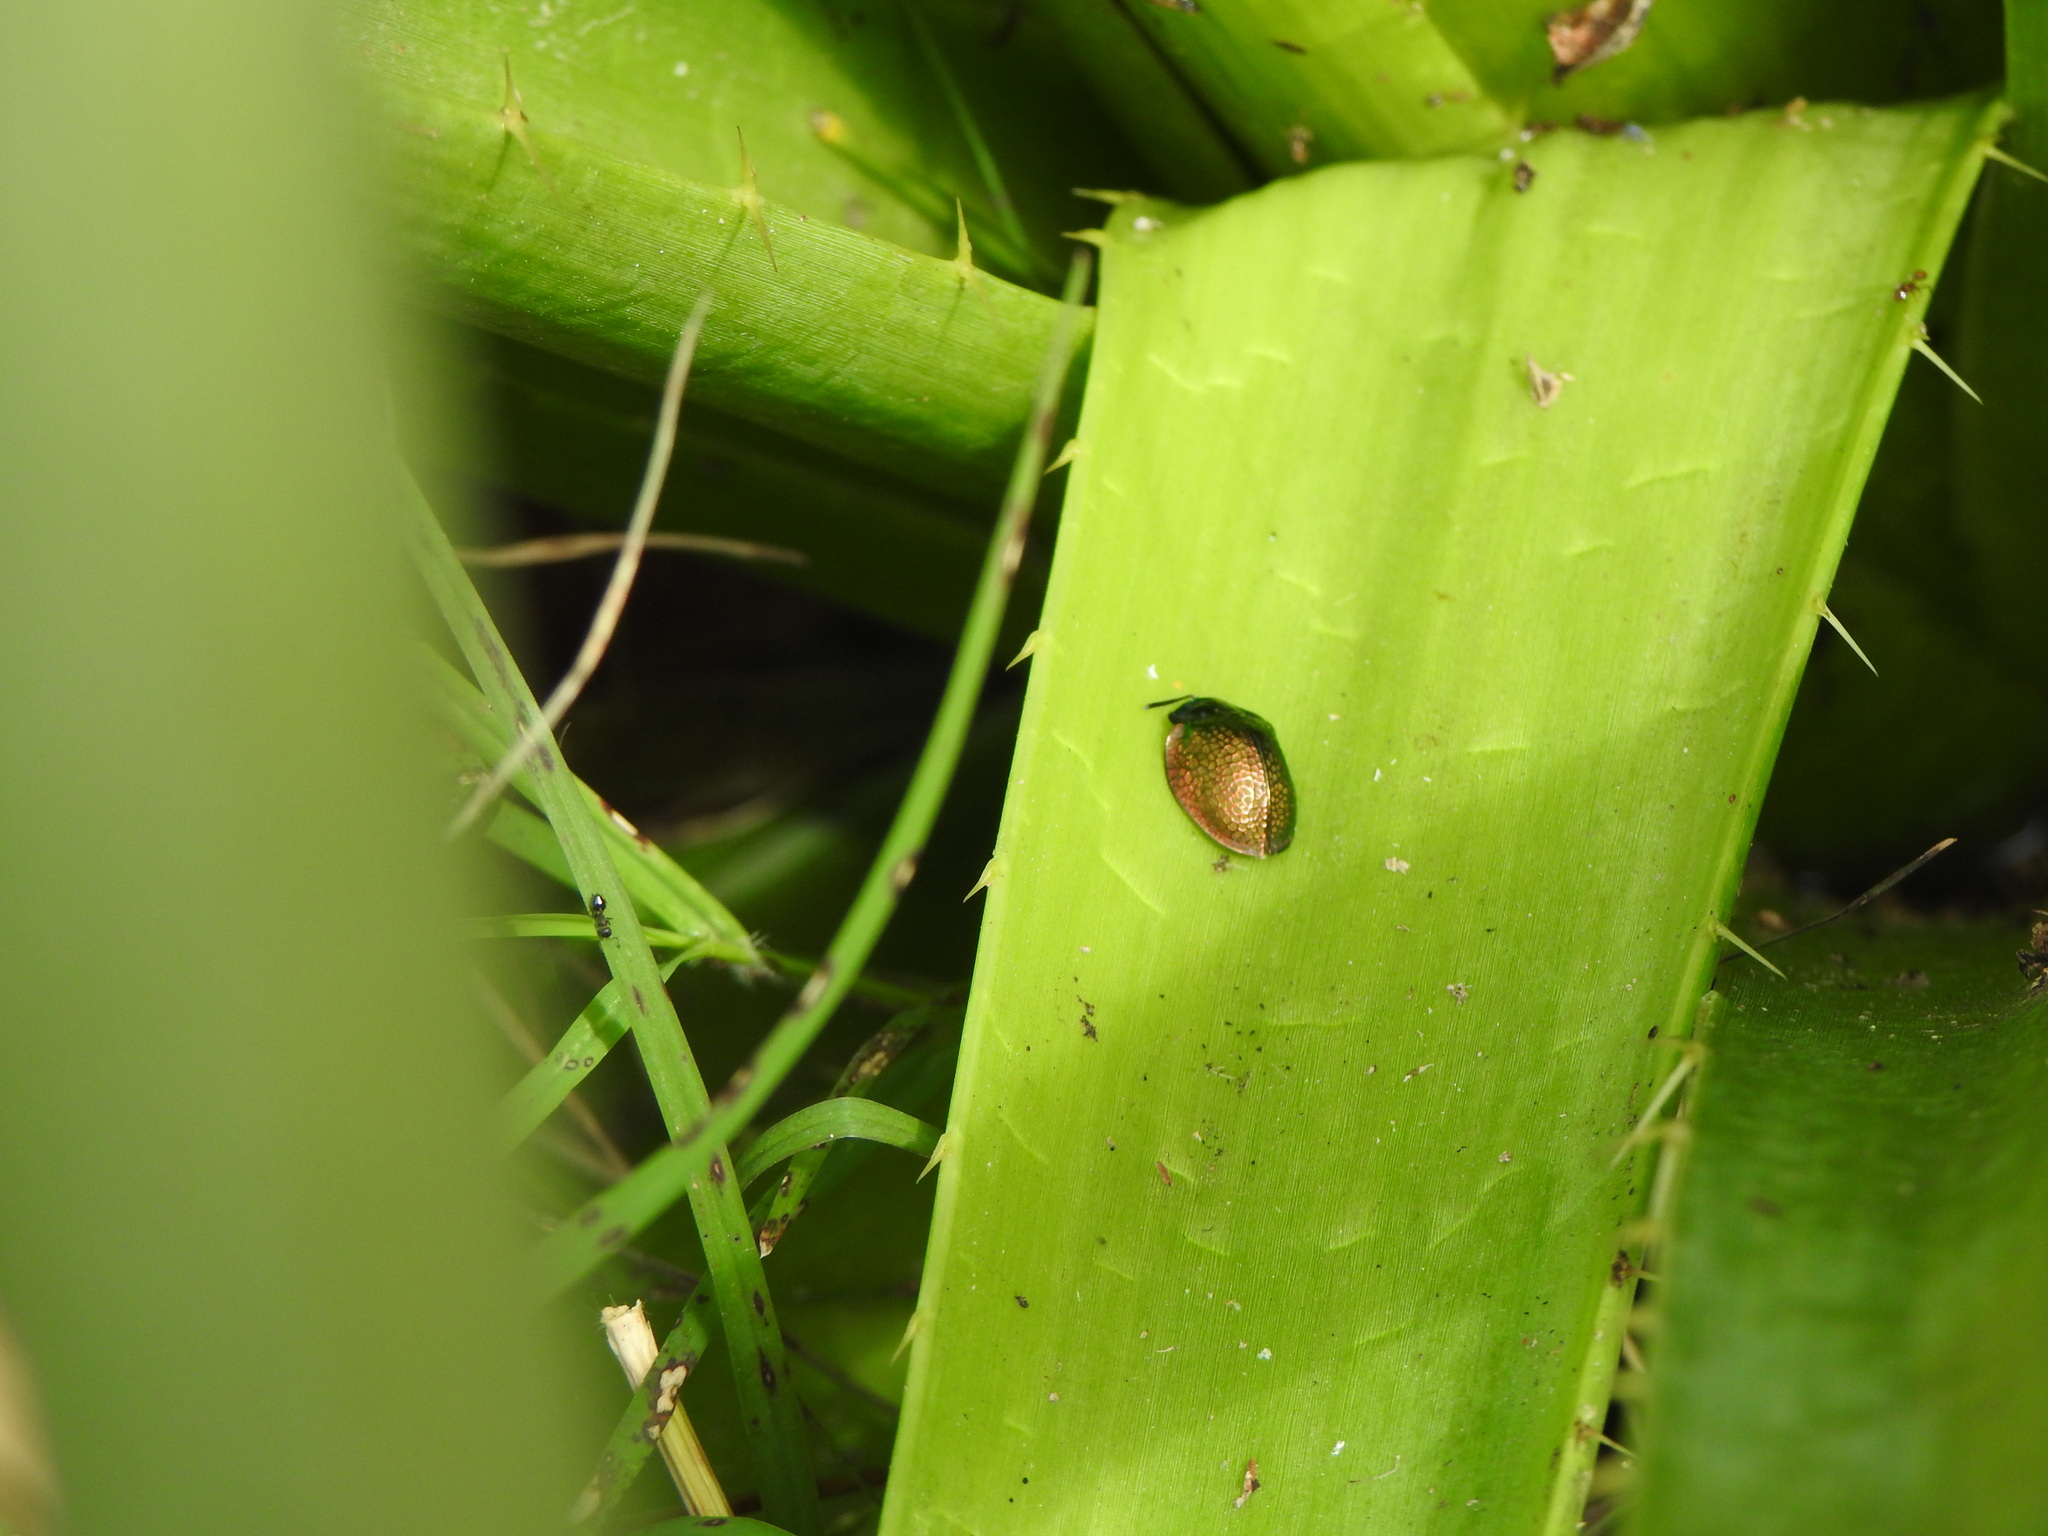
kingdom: Animalia
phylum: Arthropoda
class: Insecta
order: Coleoptera
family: Chrysomelidae
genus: Stolas
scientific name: Stolas festiva
